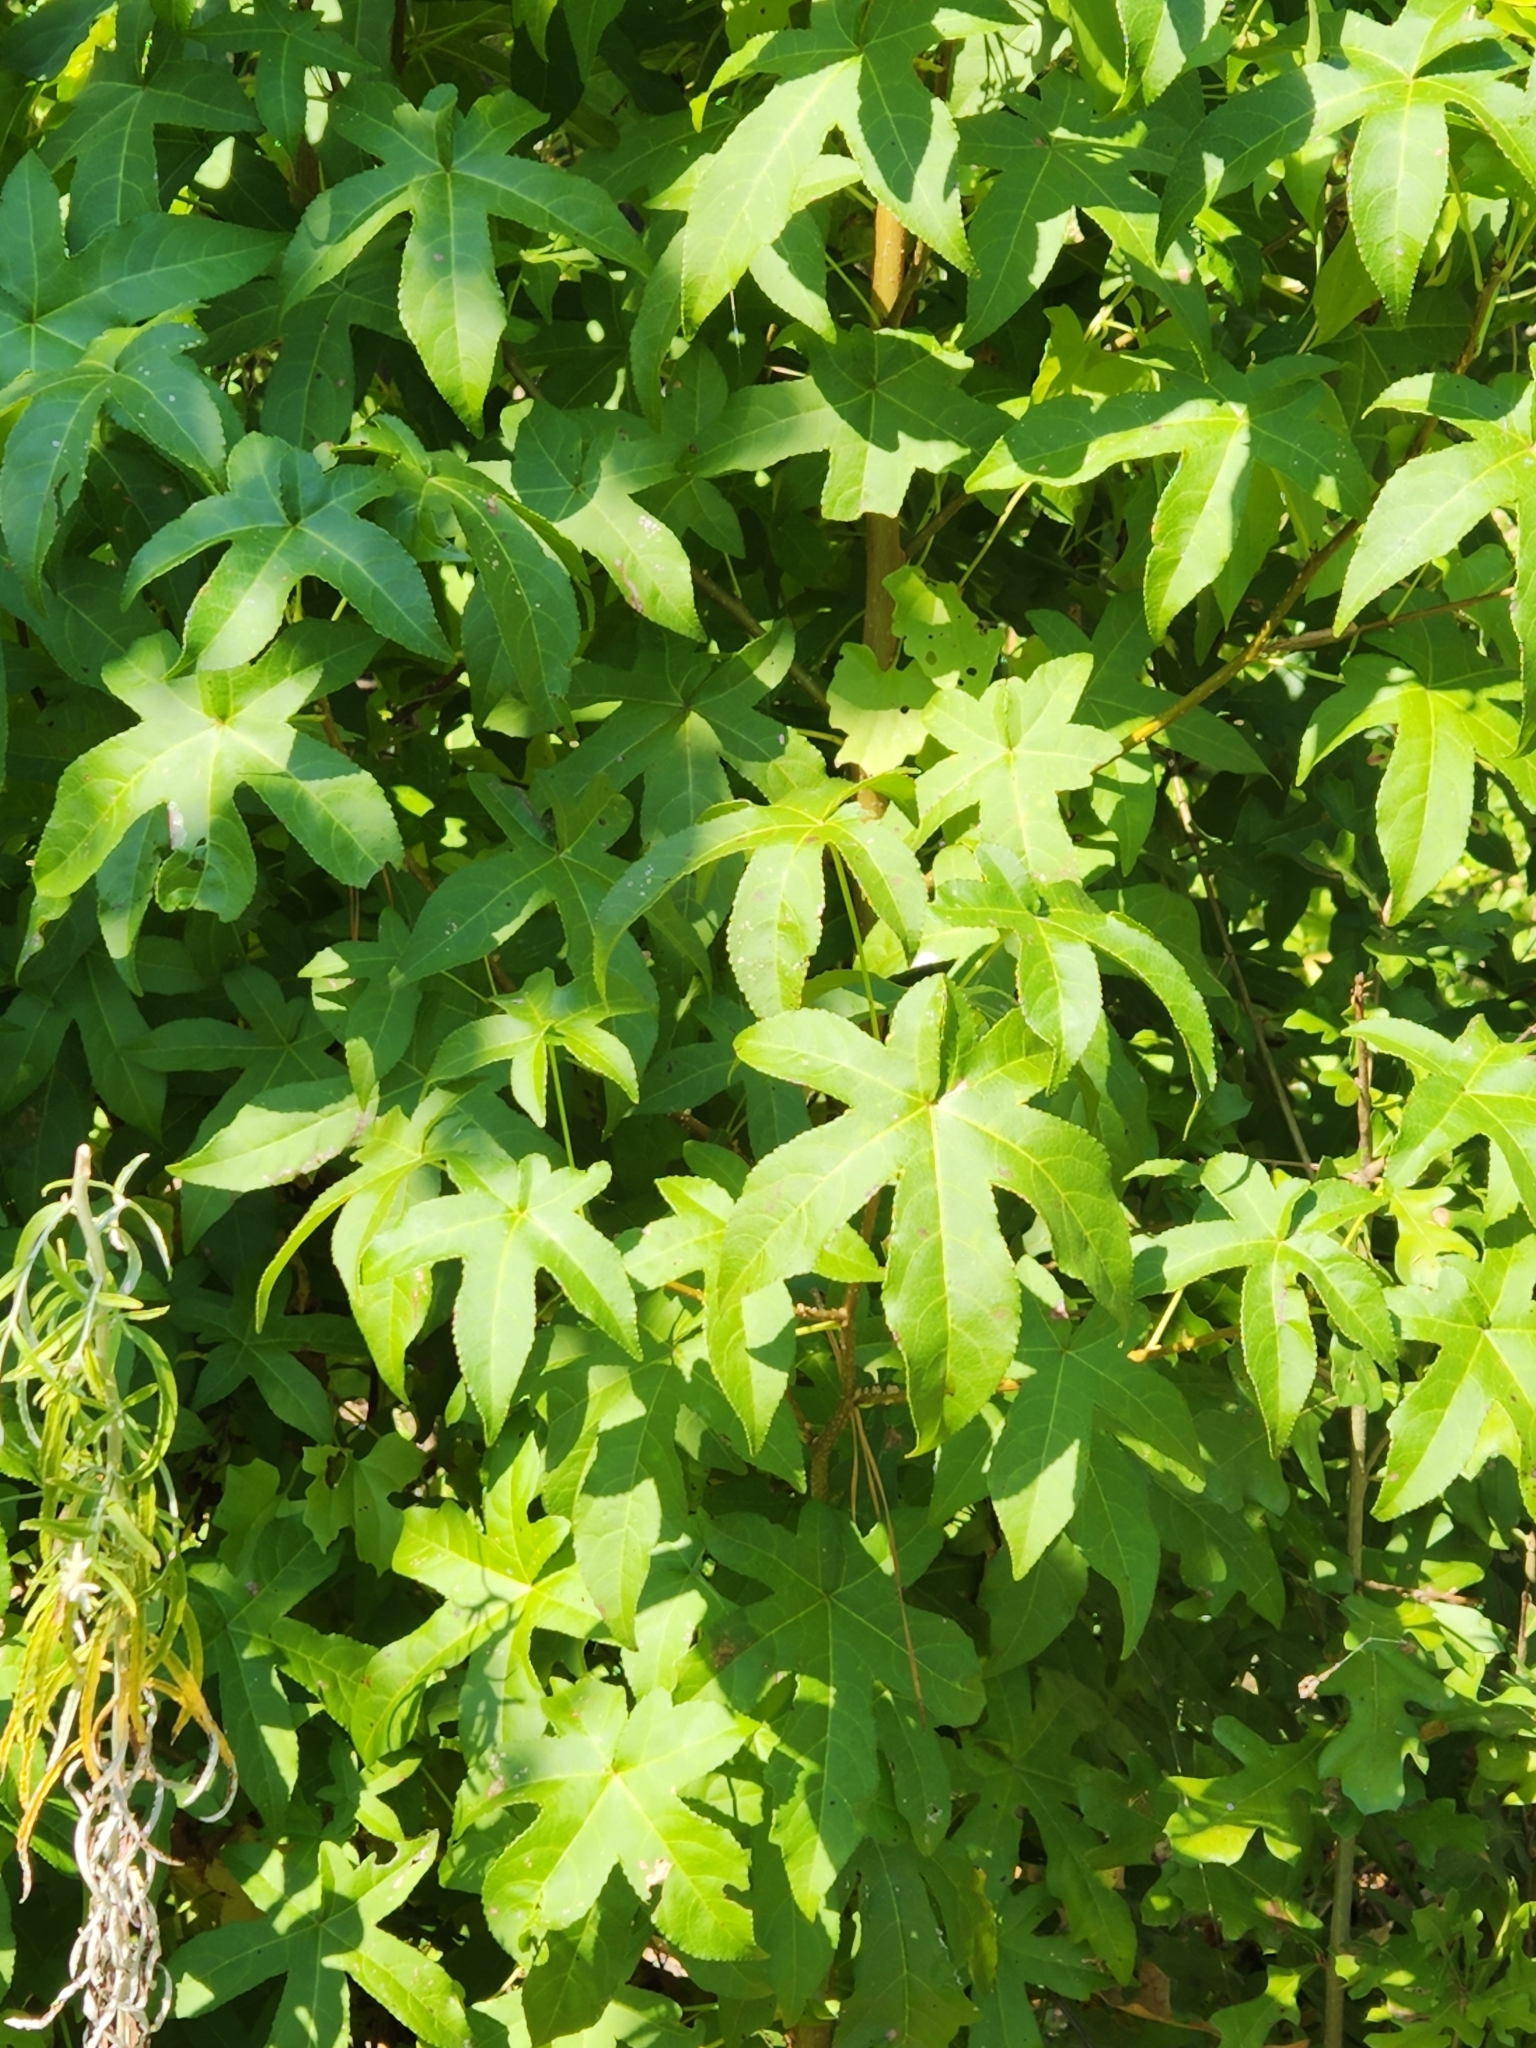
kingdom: Plantae
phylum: Tracheophyta
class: Magnoliopsida
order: Saxifragales
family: Altingiaceae
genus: Liquidambar
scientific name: Liquidambar styraciflua
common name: Sweet gum
